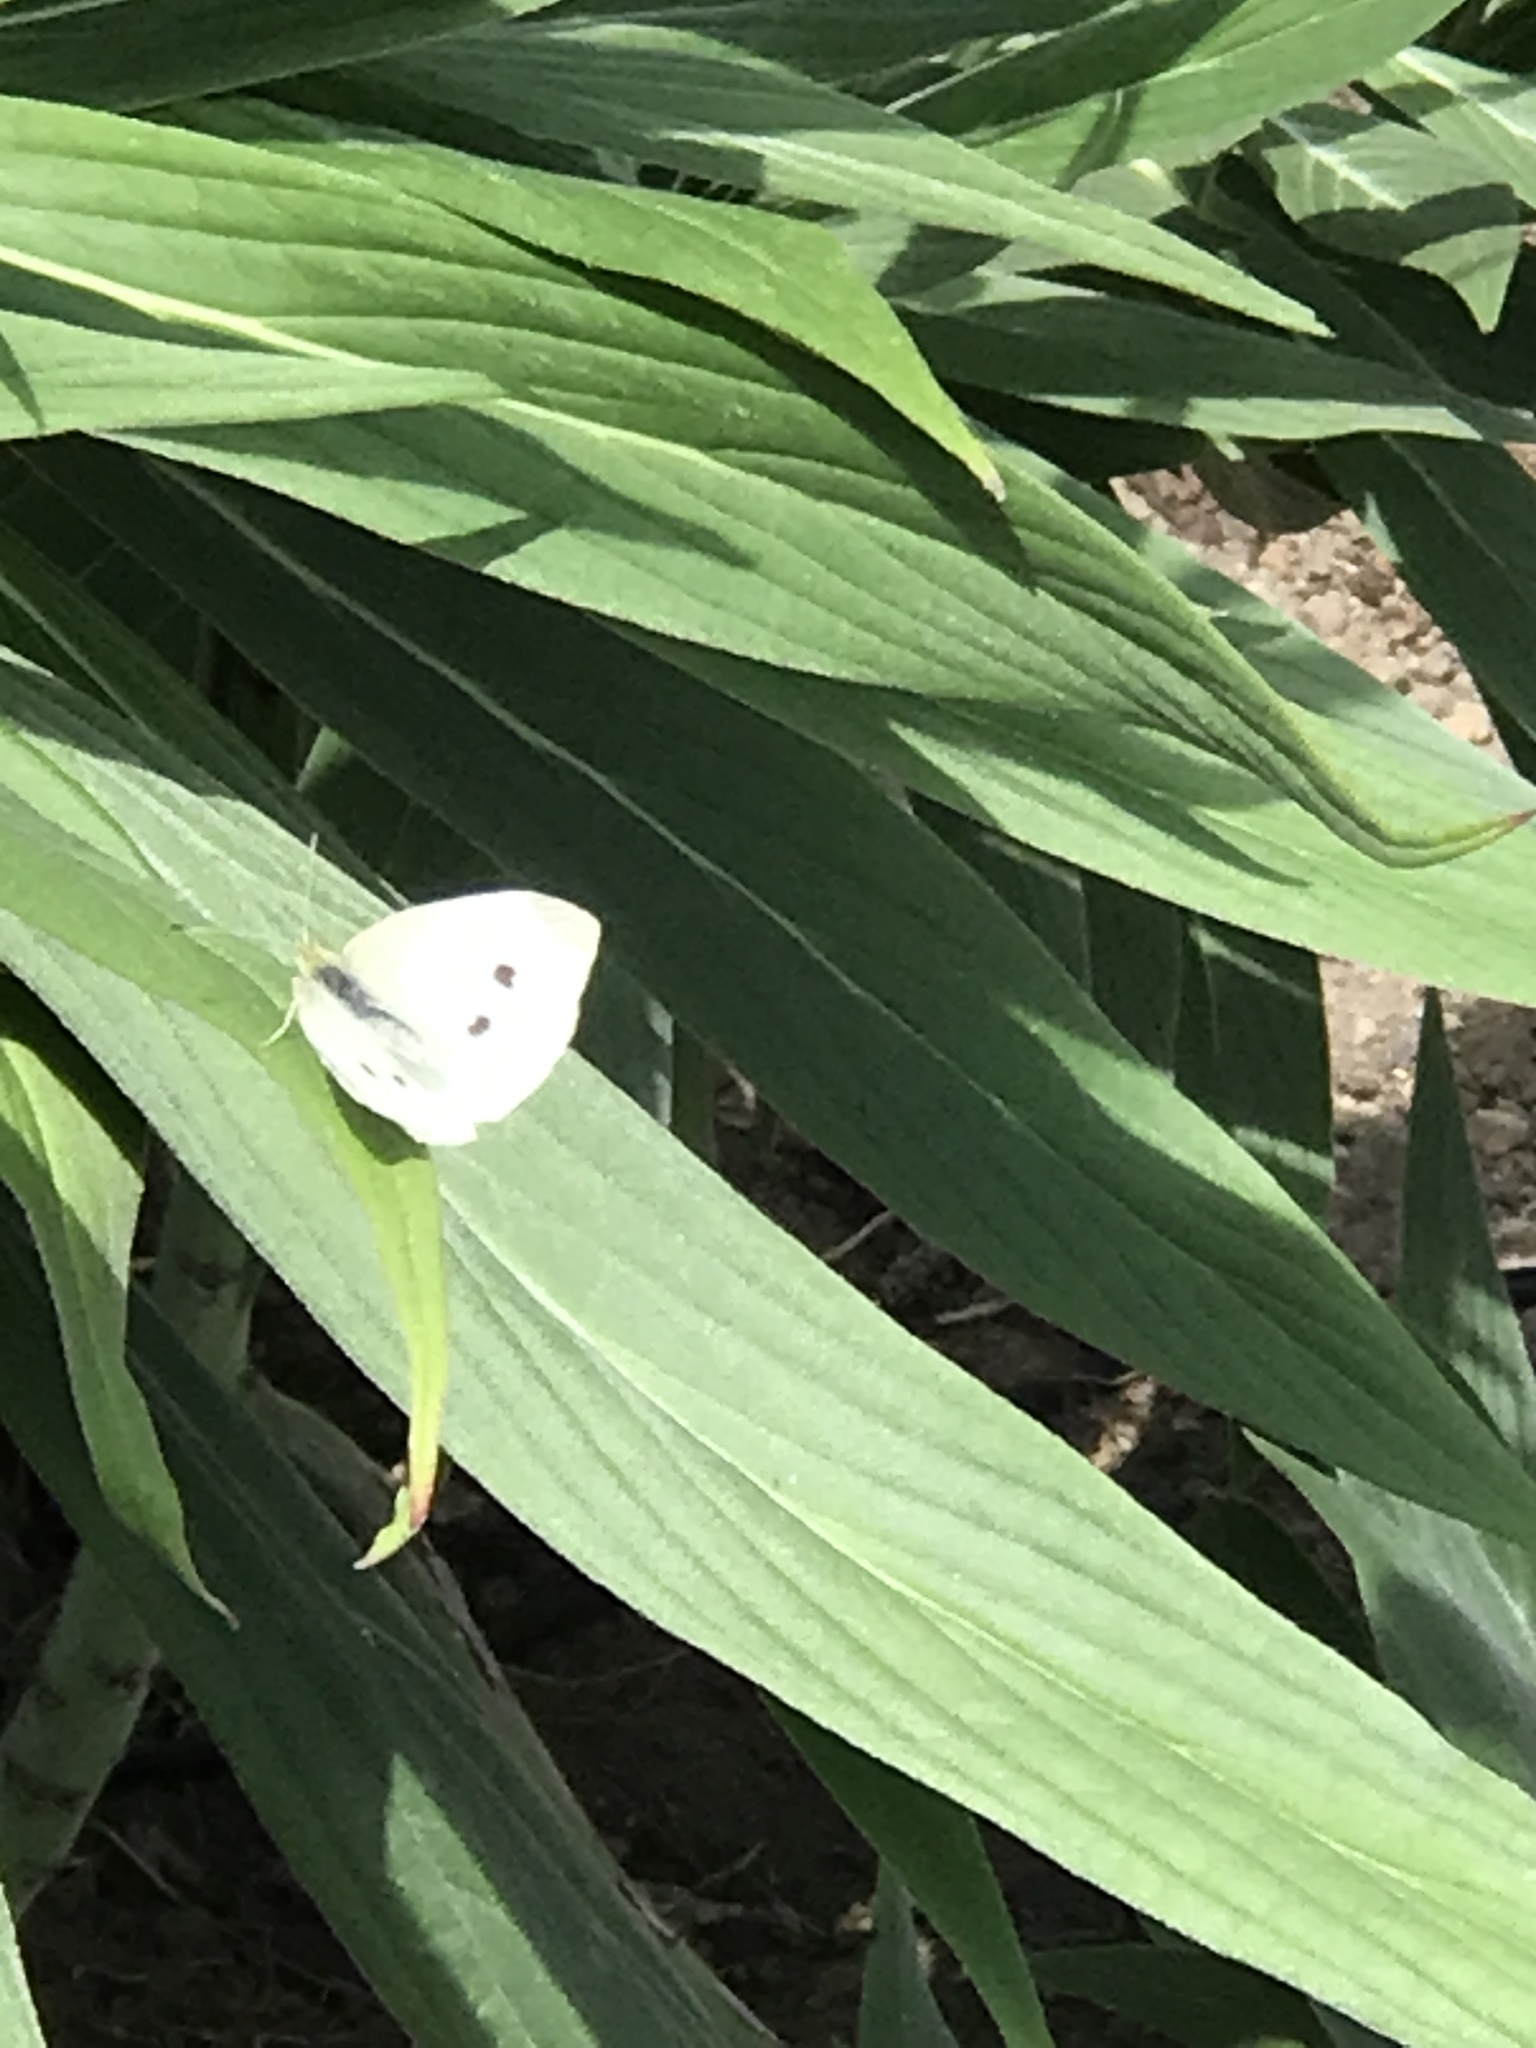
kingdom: Animalia
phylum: Arthropoda
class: Insecta
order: Lepidoptera
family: Pieridae
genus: Pieris
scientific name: Pieris rapae
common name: Small white
